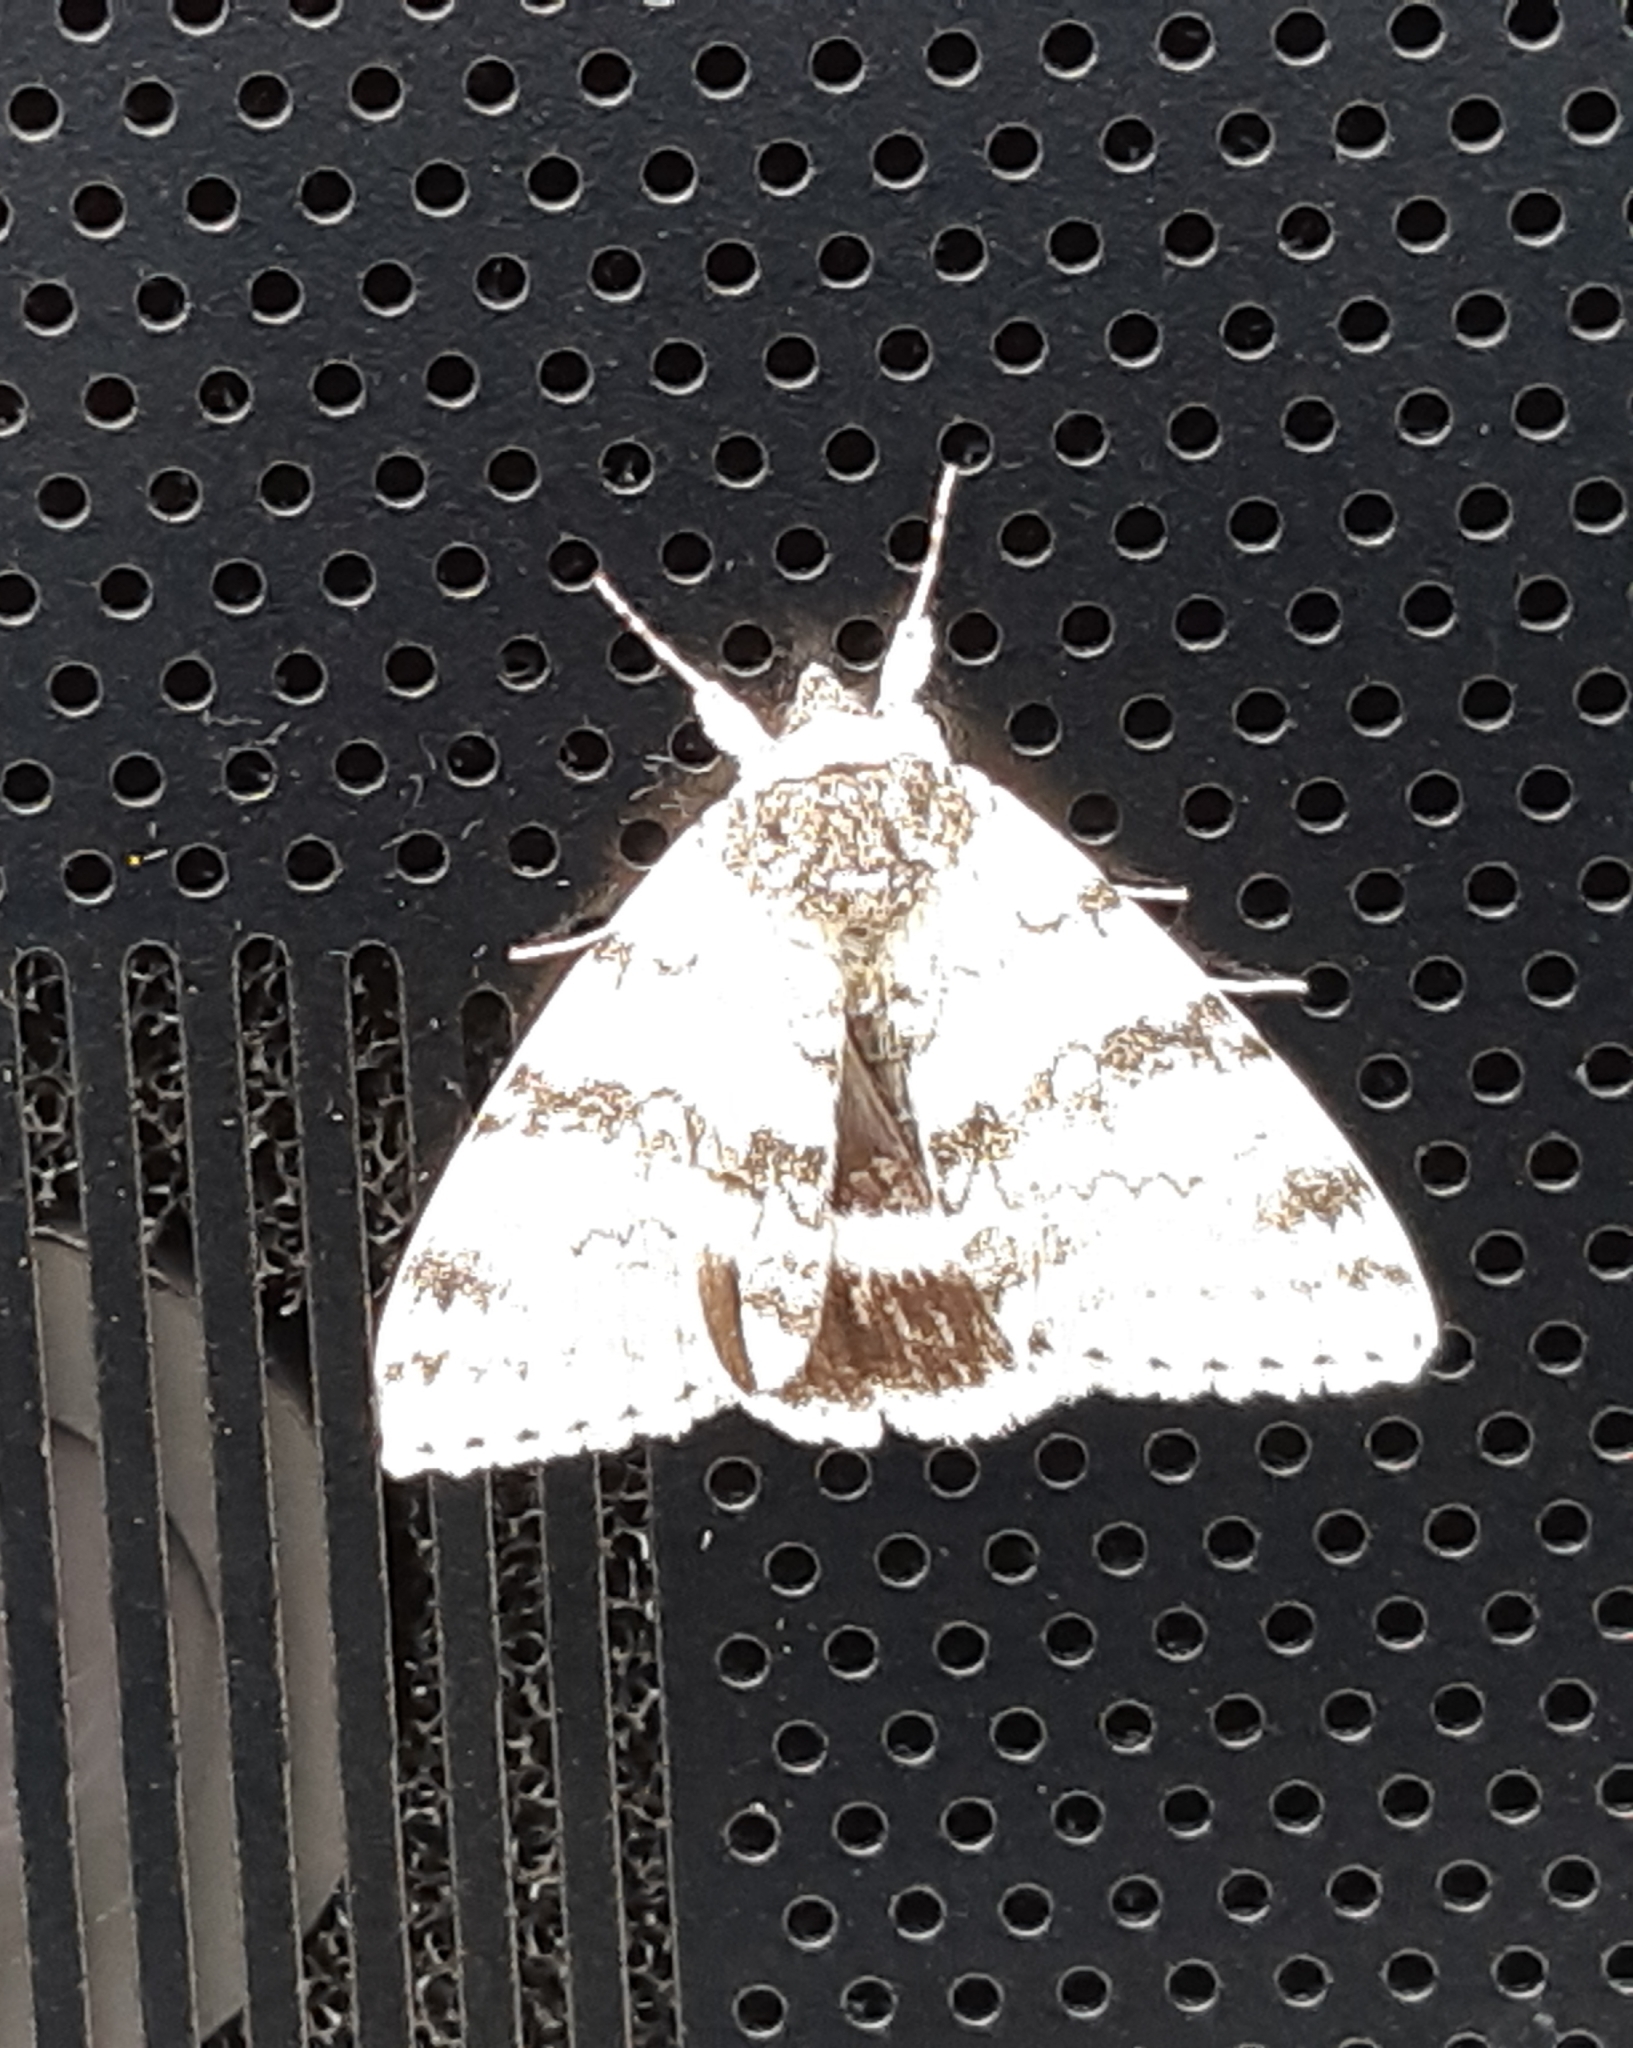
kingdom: Animalia
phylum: Arthropoda
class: Insecta
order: Lepidoptera
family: Erebidae
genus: Catocala
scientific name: Catocala relicta
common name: White underwing
